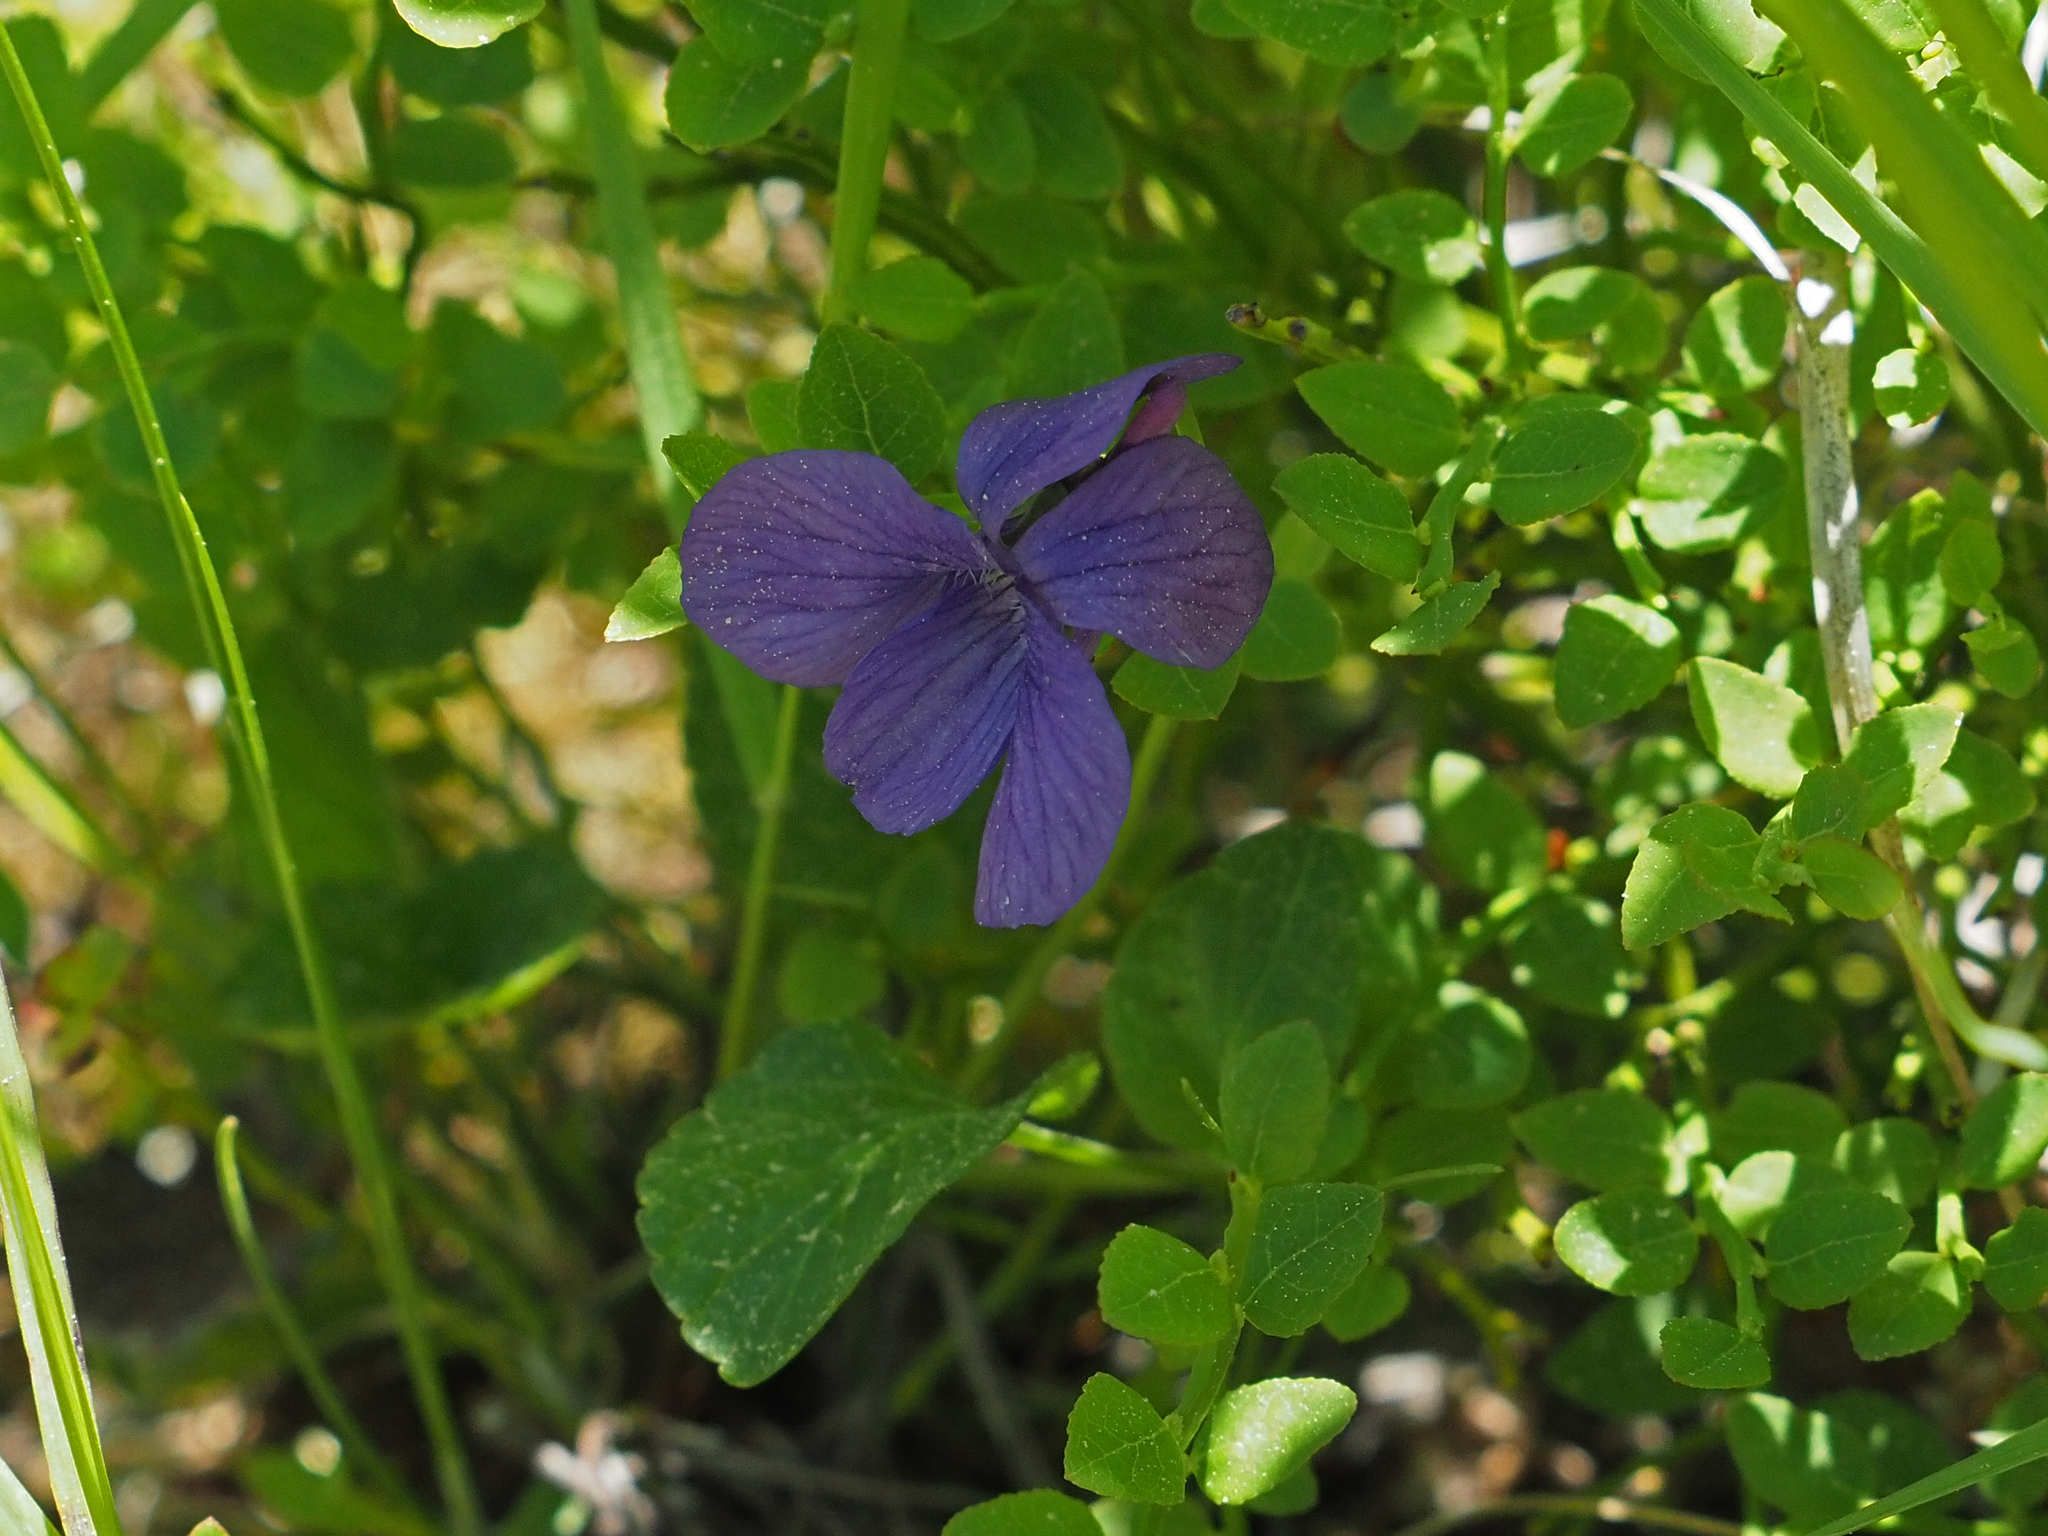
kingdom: Plantae
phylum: Tracheophyta
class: Magnoliopsida
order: Malpighiales
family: Violaceae
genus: Viola
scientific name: Viola adunca
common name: Sand violet
